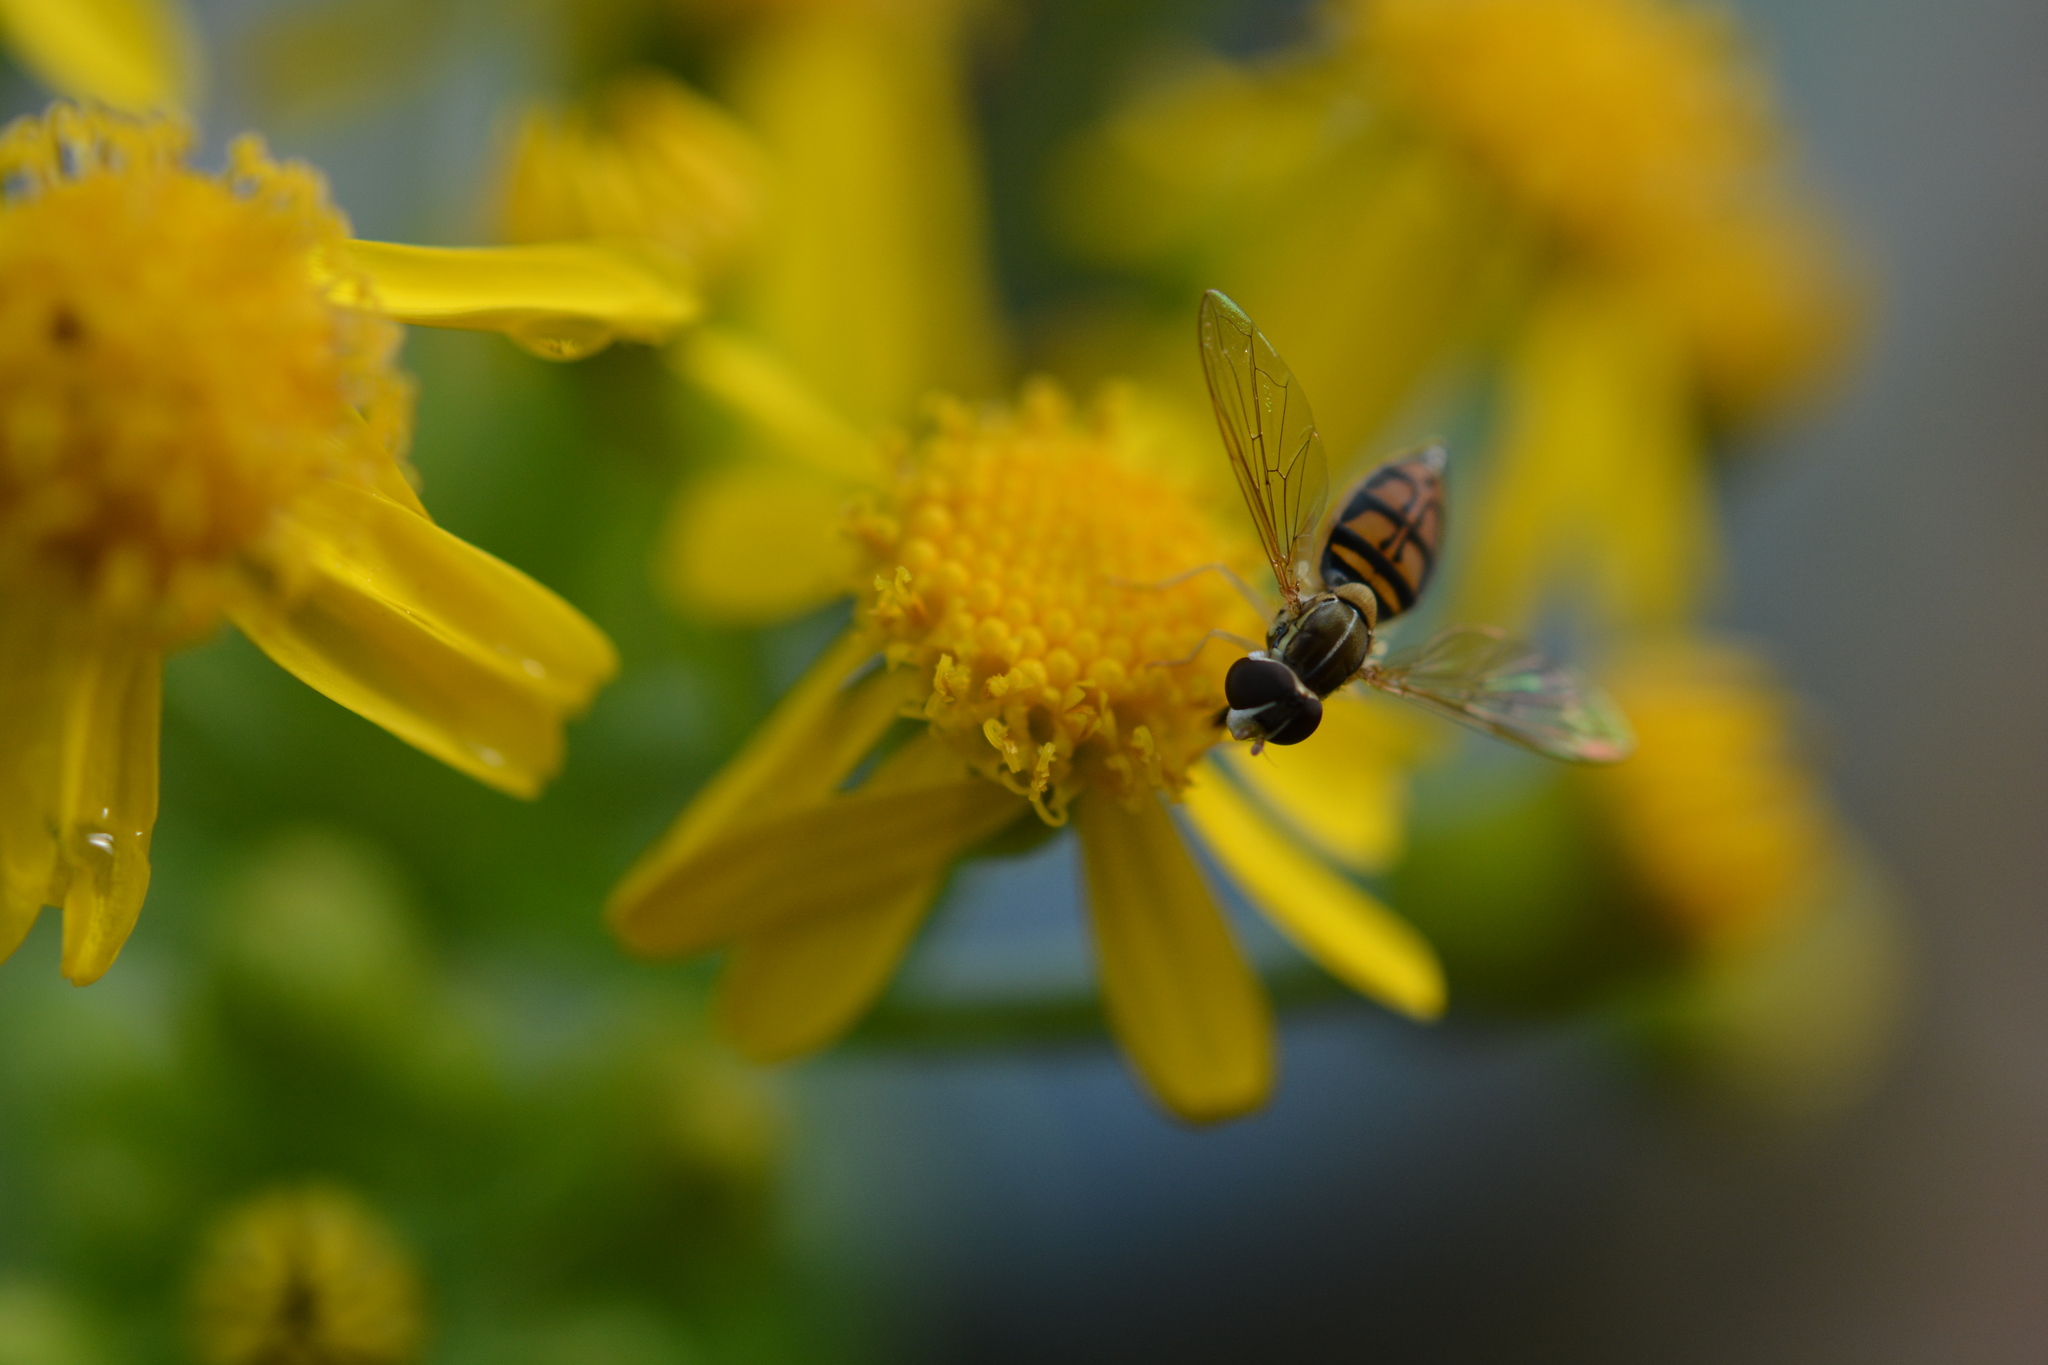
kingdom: Animalia
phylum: Arthropoda
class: Insecta
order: Diptera
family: Syrphidae
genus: Toxomerus
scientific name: Toxomerus marginatus
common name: Syrphid fly
